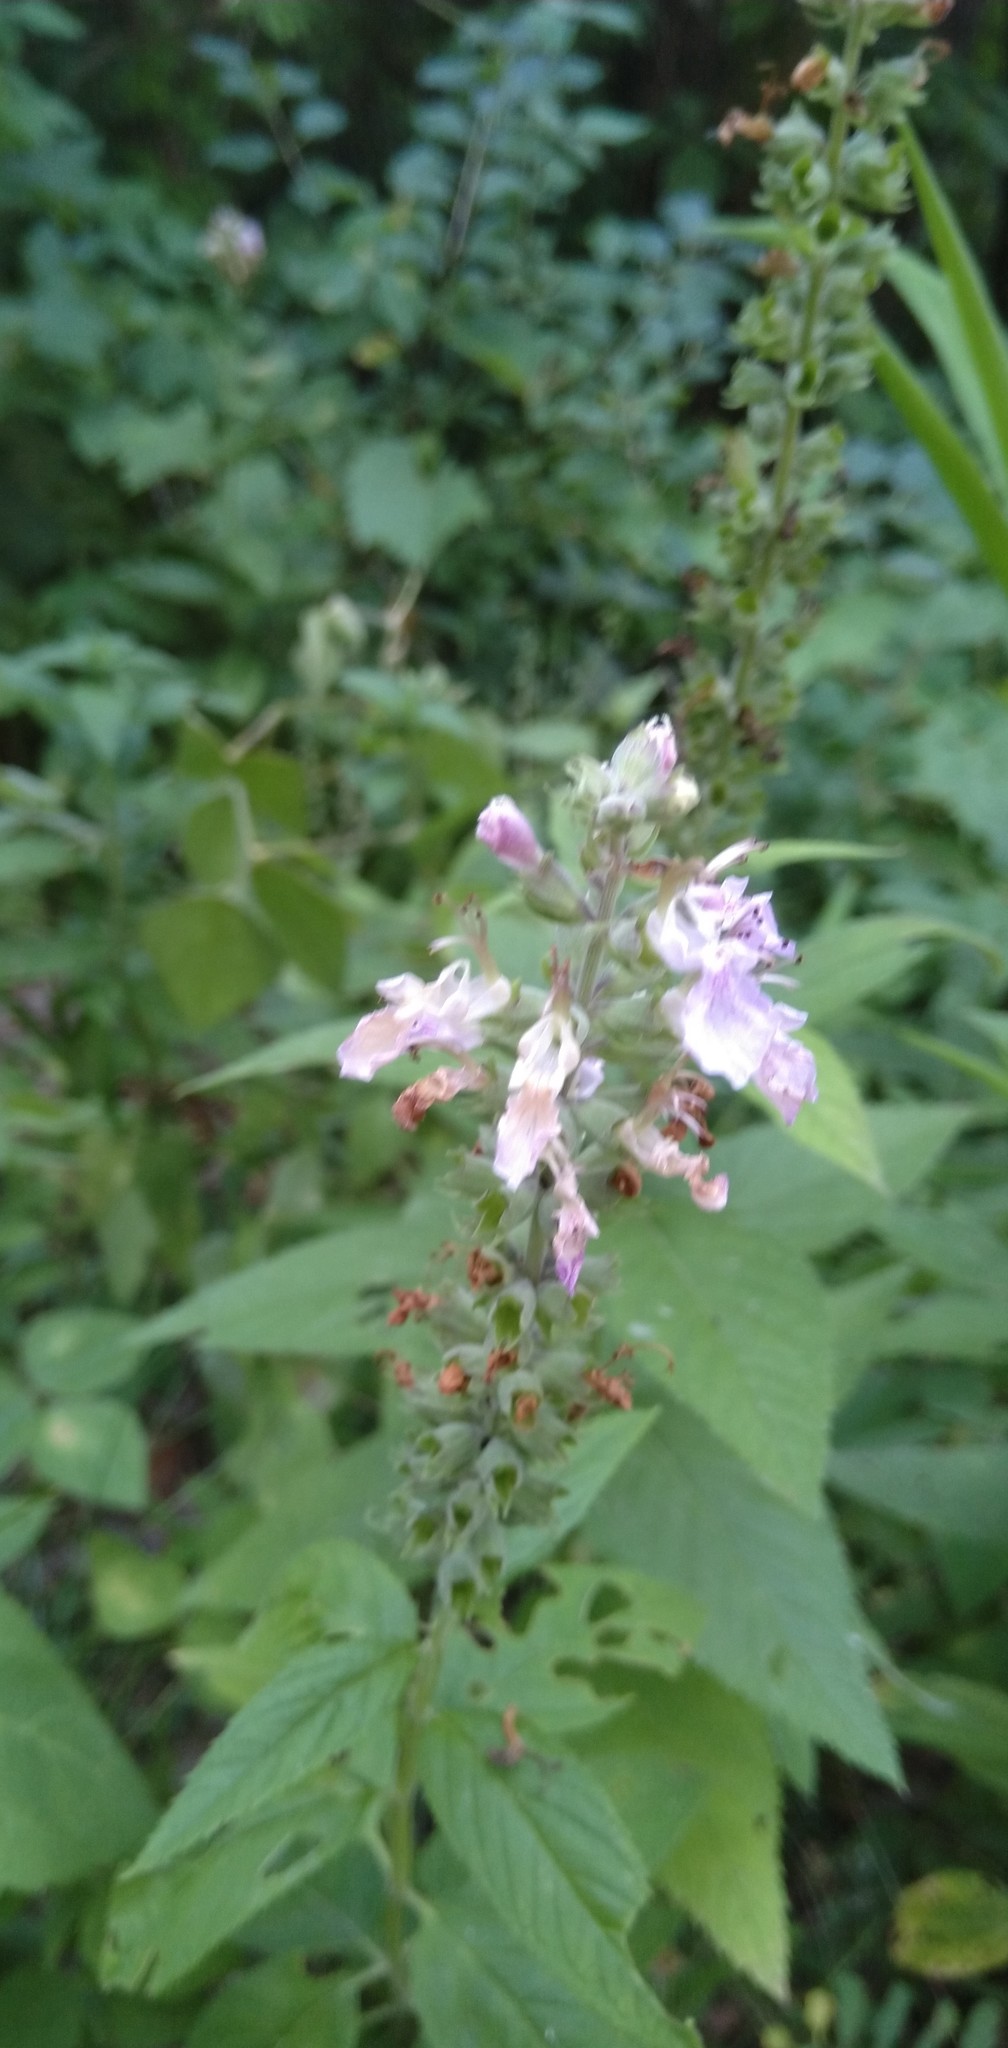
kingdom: Plantae
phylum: Tracheophyta
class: Magnoliopsida
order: Lamiales
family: Lamiaceae
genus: Teucrium
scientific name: Teucrium canadense
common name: American germander
